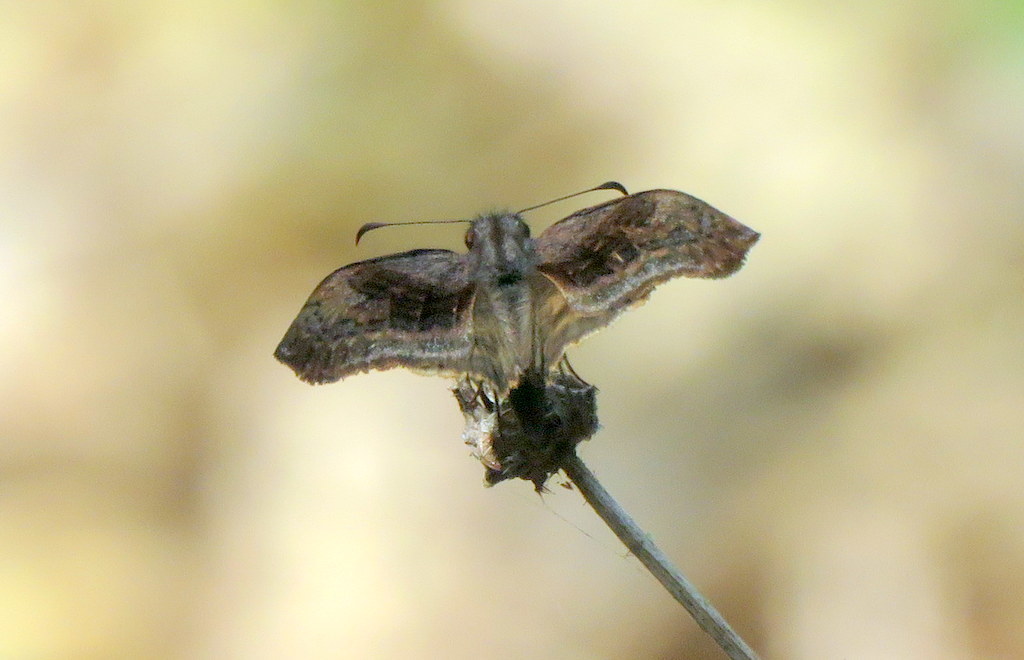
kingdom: Animalia
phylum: Arthropoda
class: Insecta
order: Lepidoptera
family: Hesperiidae
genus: Theagenes
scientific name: Theagenes dichrous
